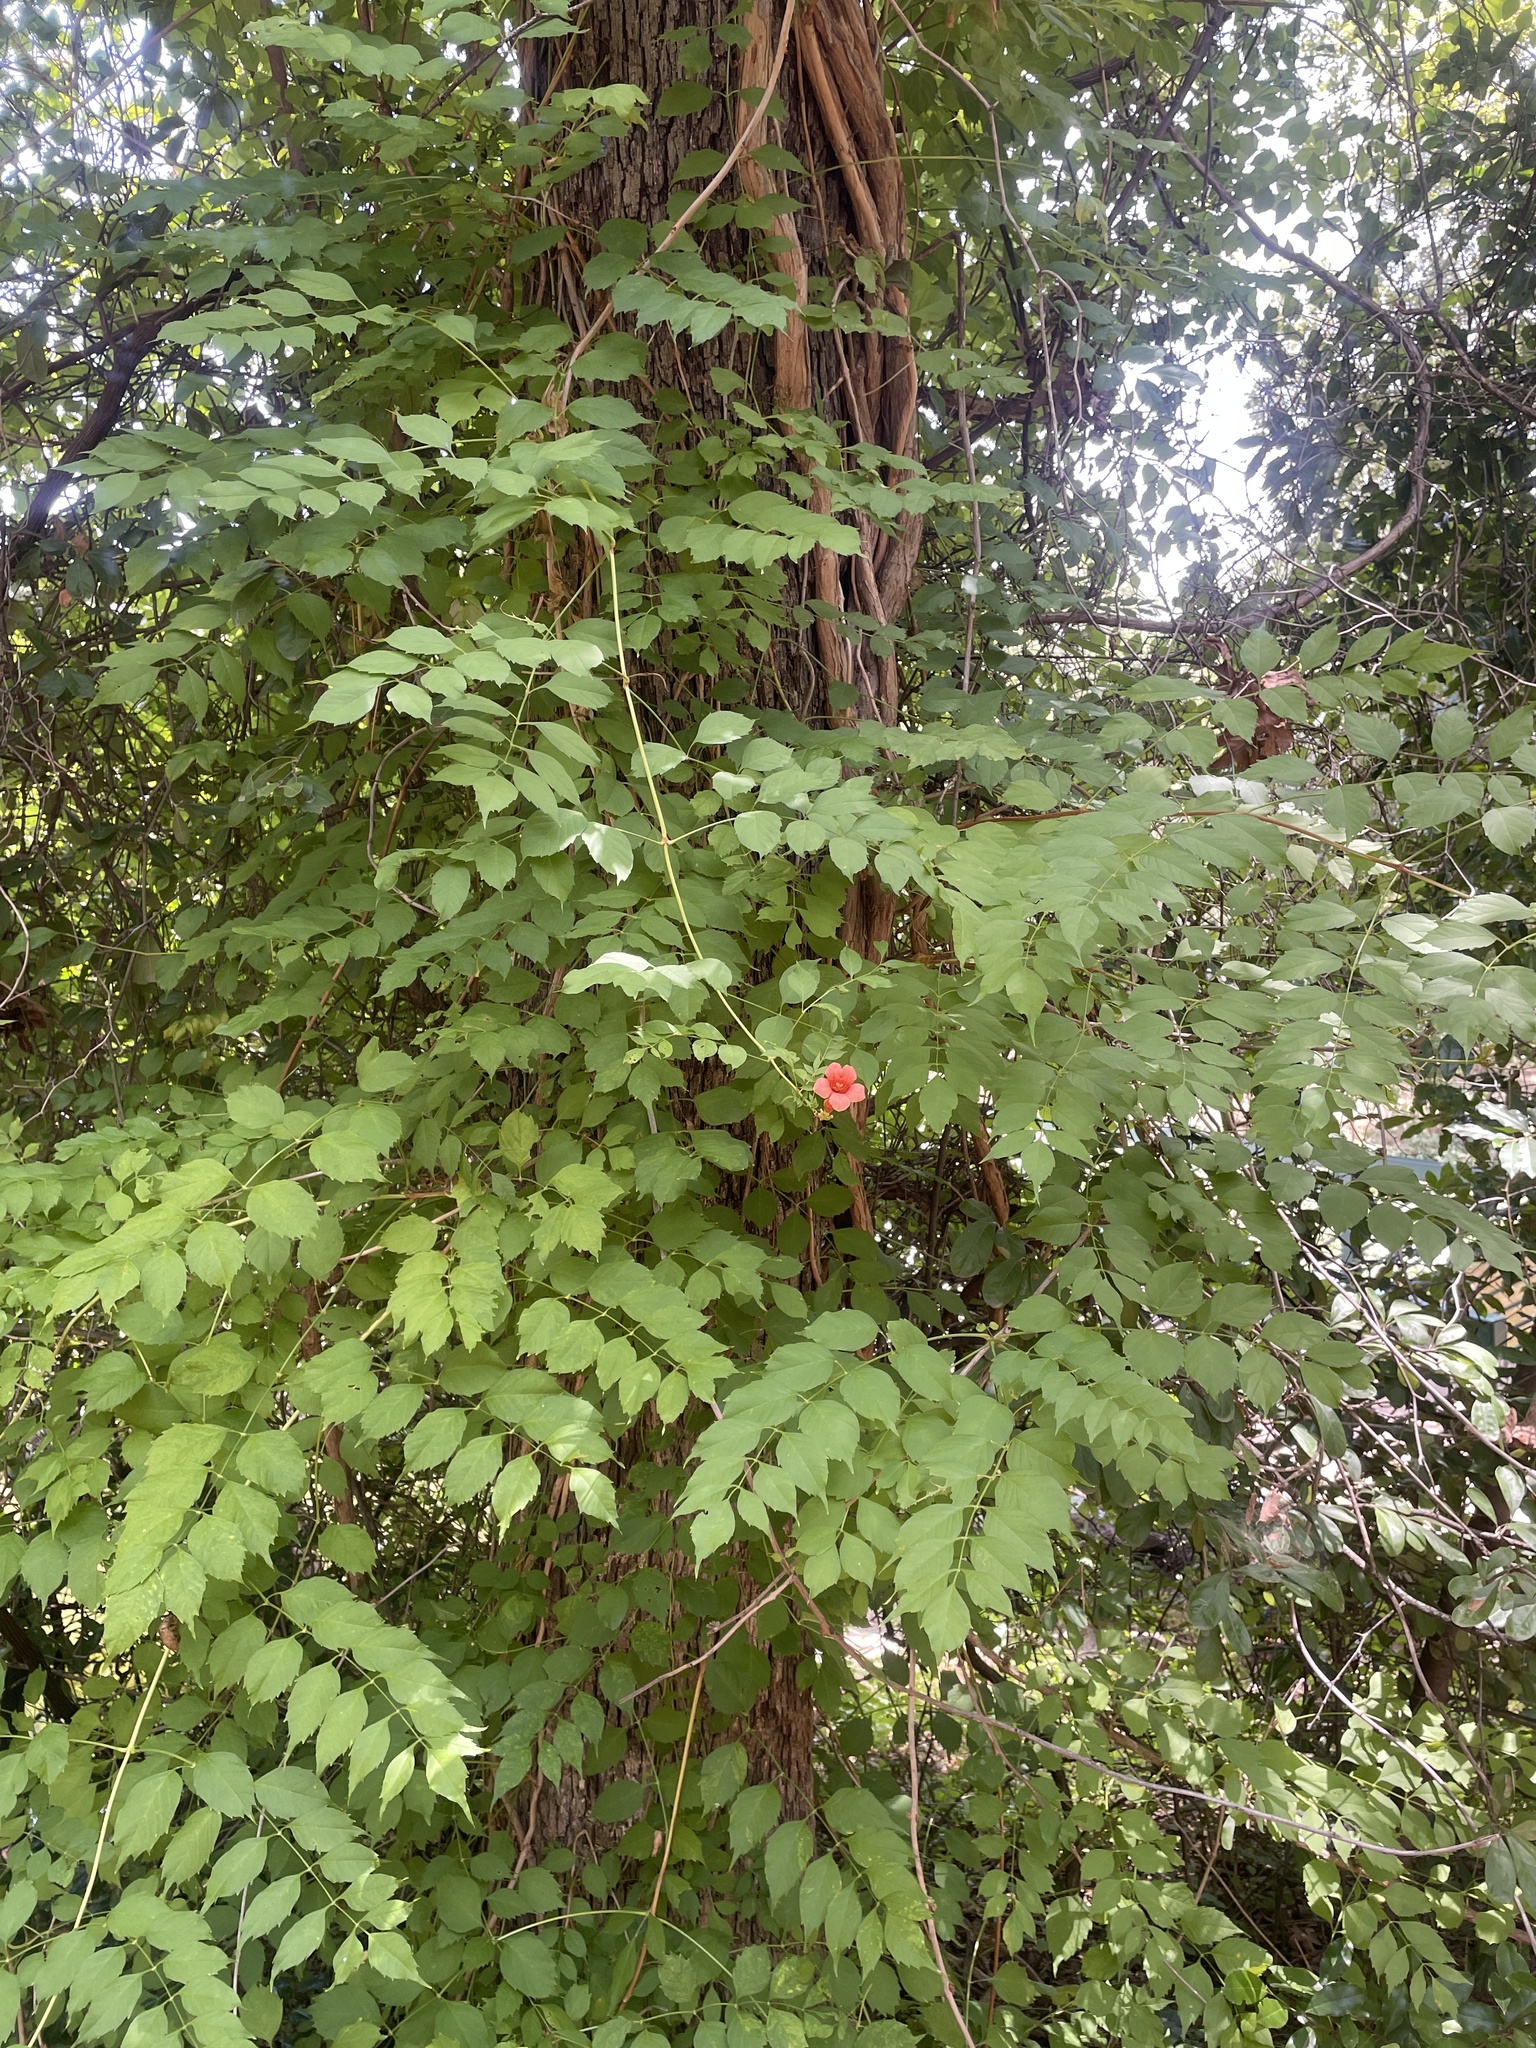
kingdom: Plantae
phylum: Tracheophyta
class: Magnoliopsida
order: Lamiales
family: Bignoniaceae
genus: Campsis
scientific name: Campsis radicans
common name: Trumpet-creeper
